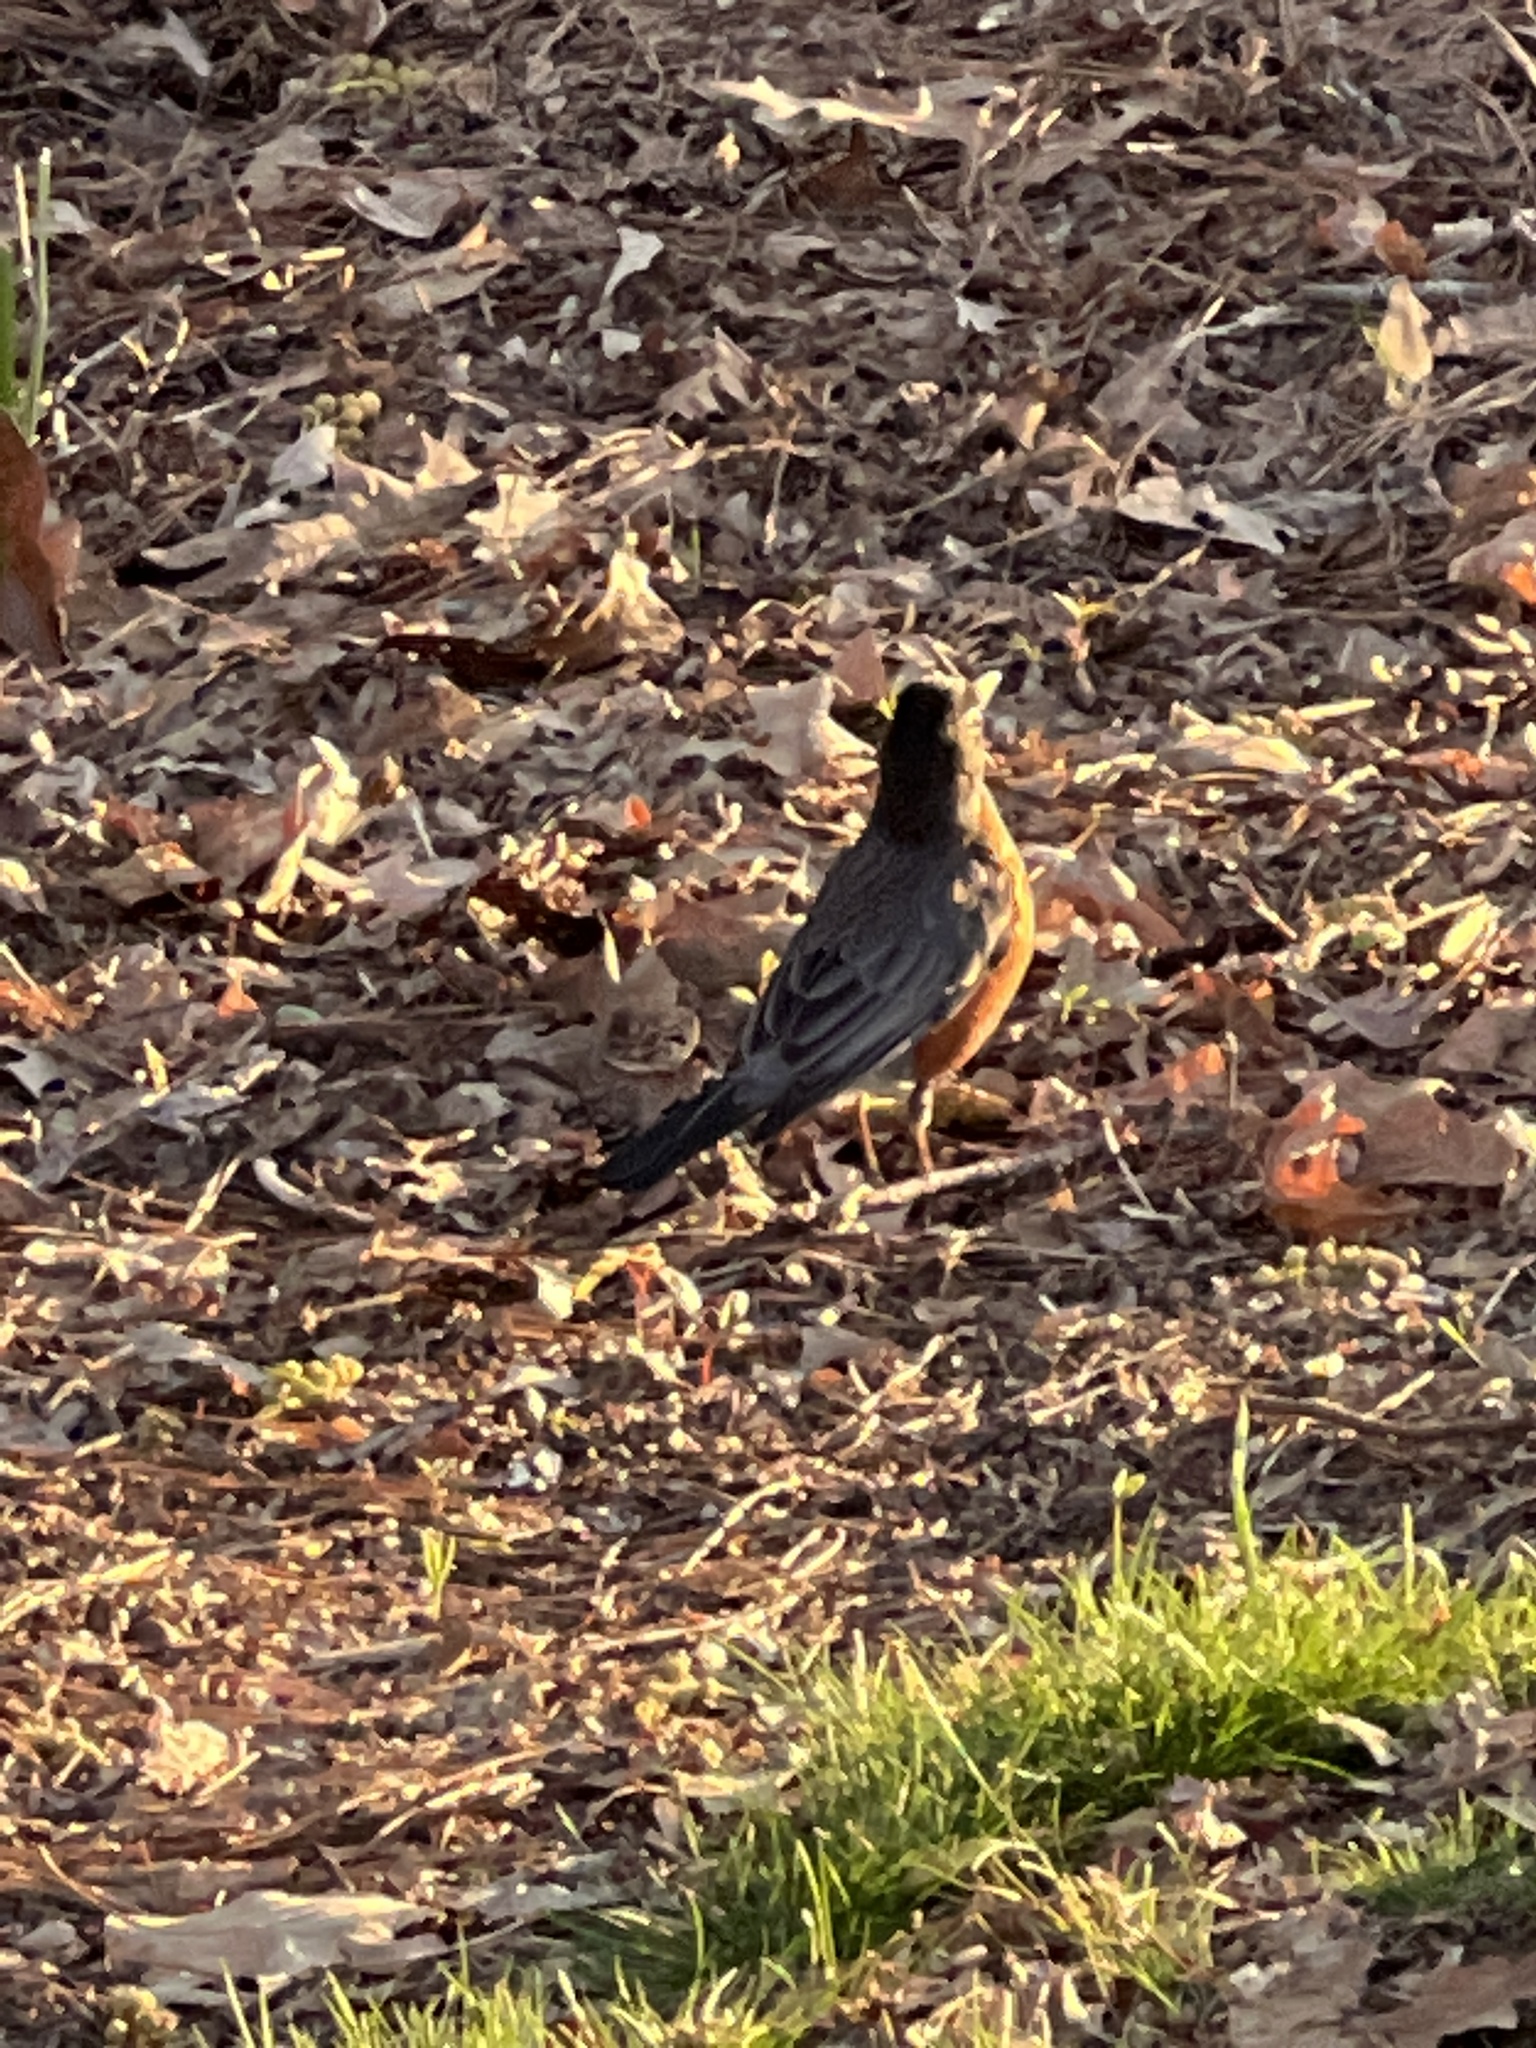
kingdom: Animalia
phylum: Chordata
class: Aves
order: Passeriformes
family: Turdidae
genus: Turdus
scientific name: Turdus migratorius
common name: American robin
